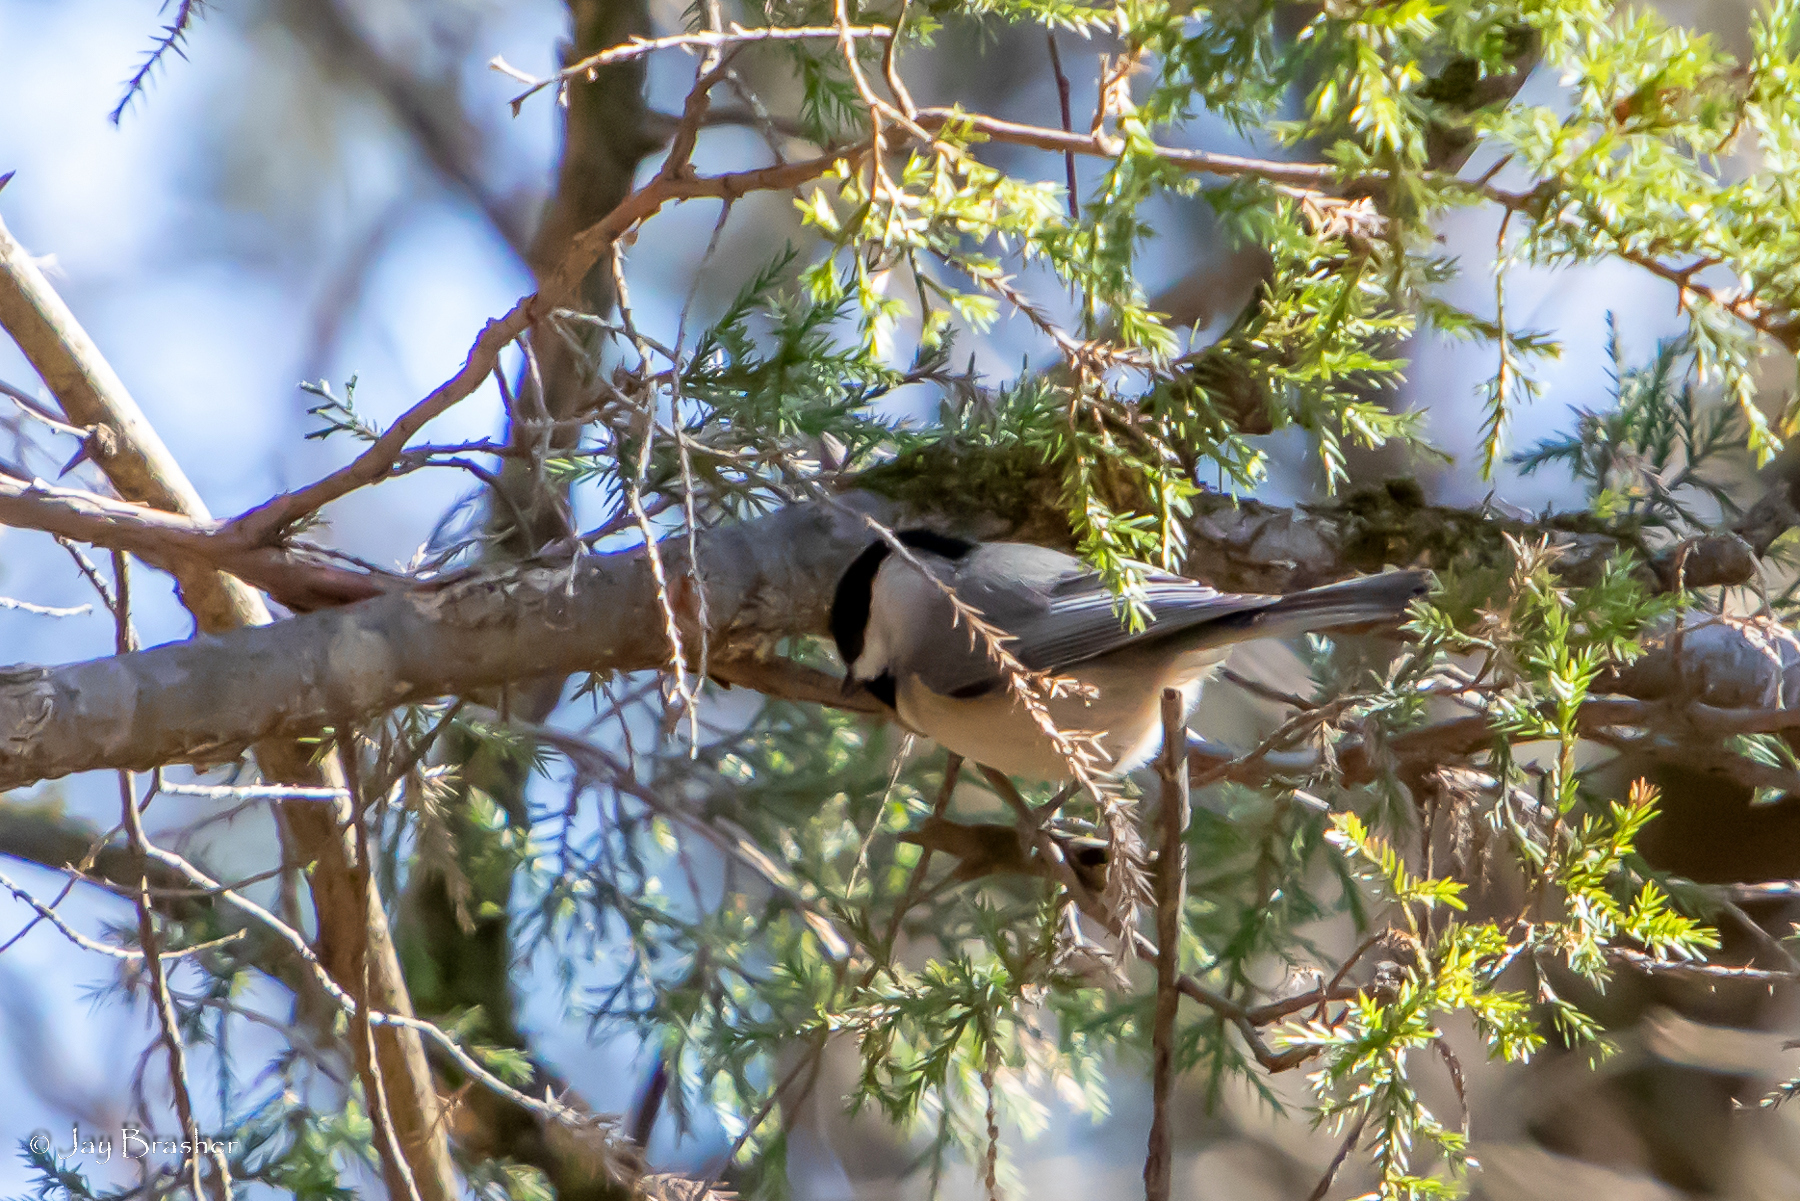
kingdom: Animalia
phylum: Chordata
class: Aves
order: Passeriformes
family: Paridae
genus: Poecile
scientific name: Poecile carolinensis
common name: Carolina chickadee
